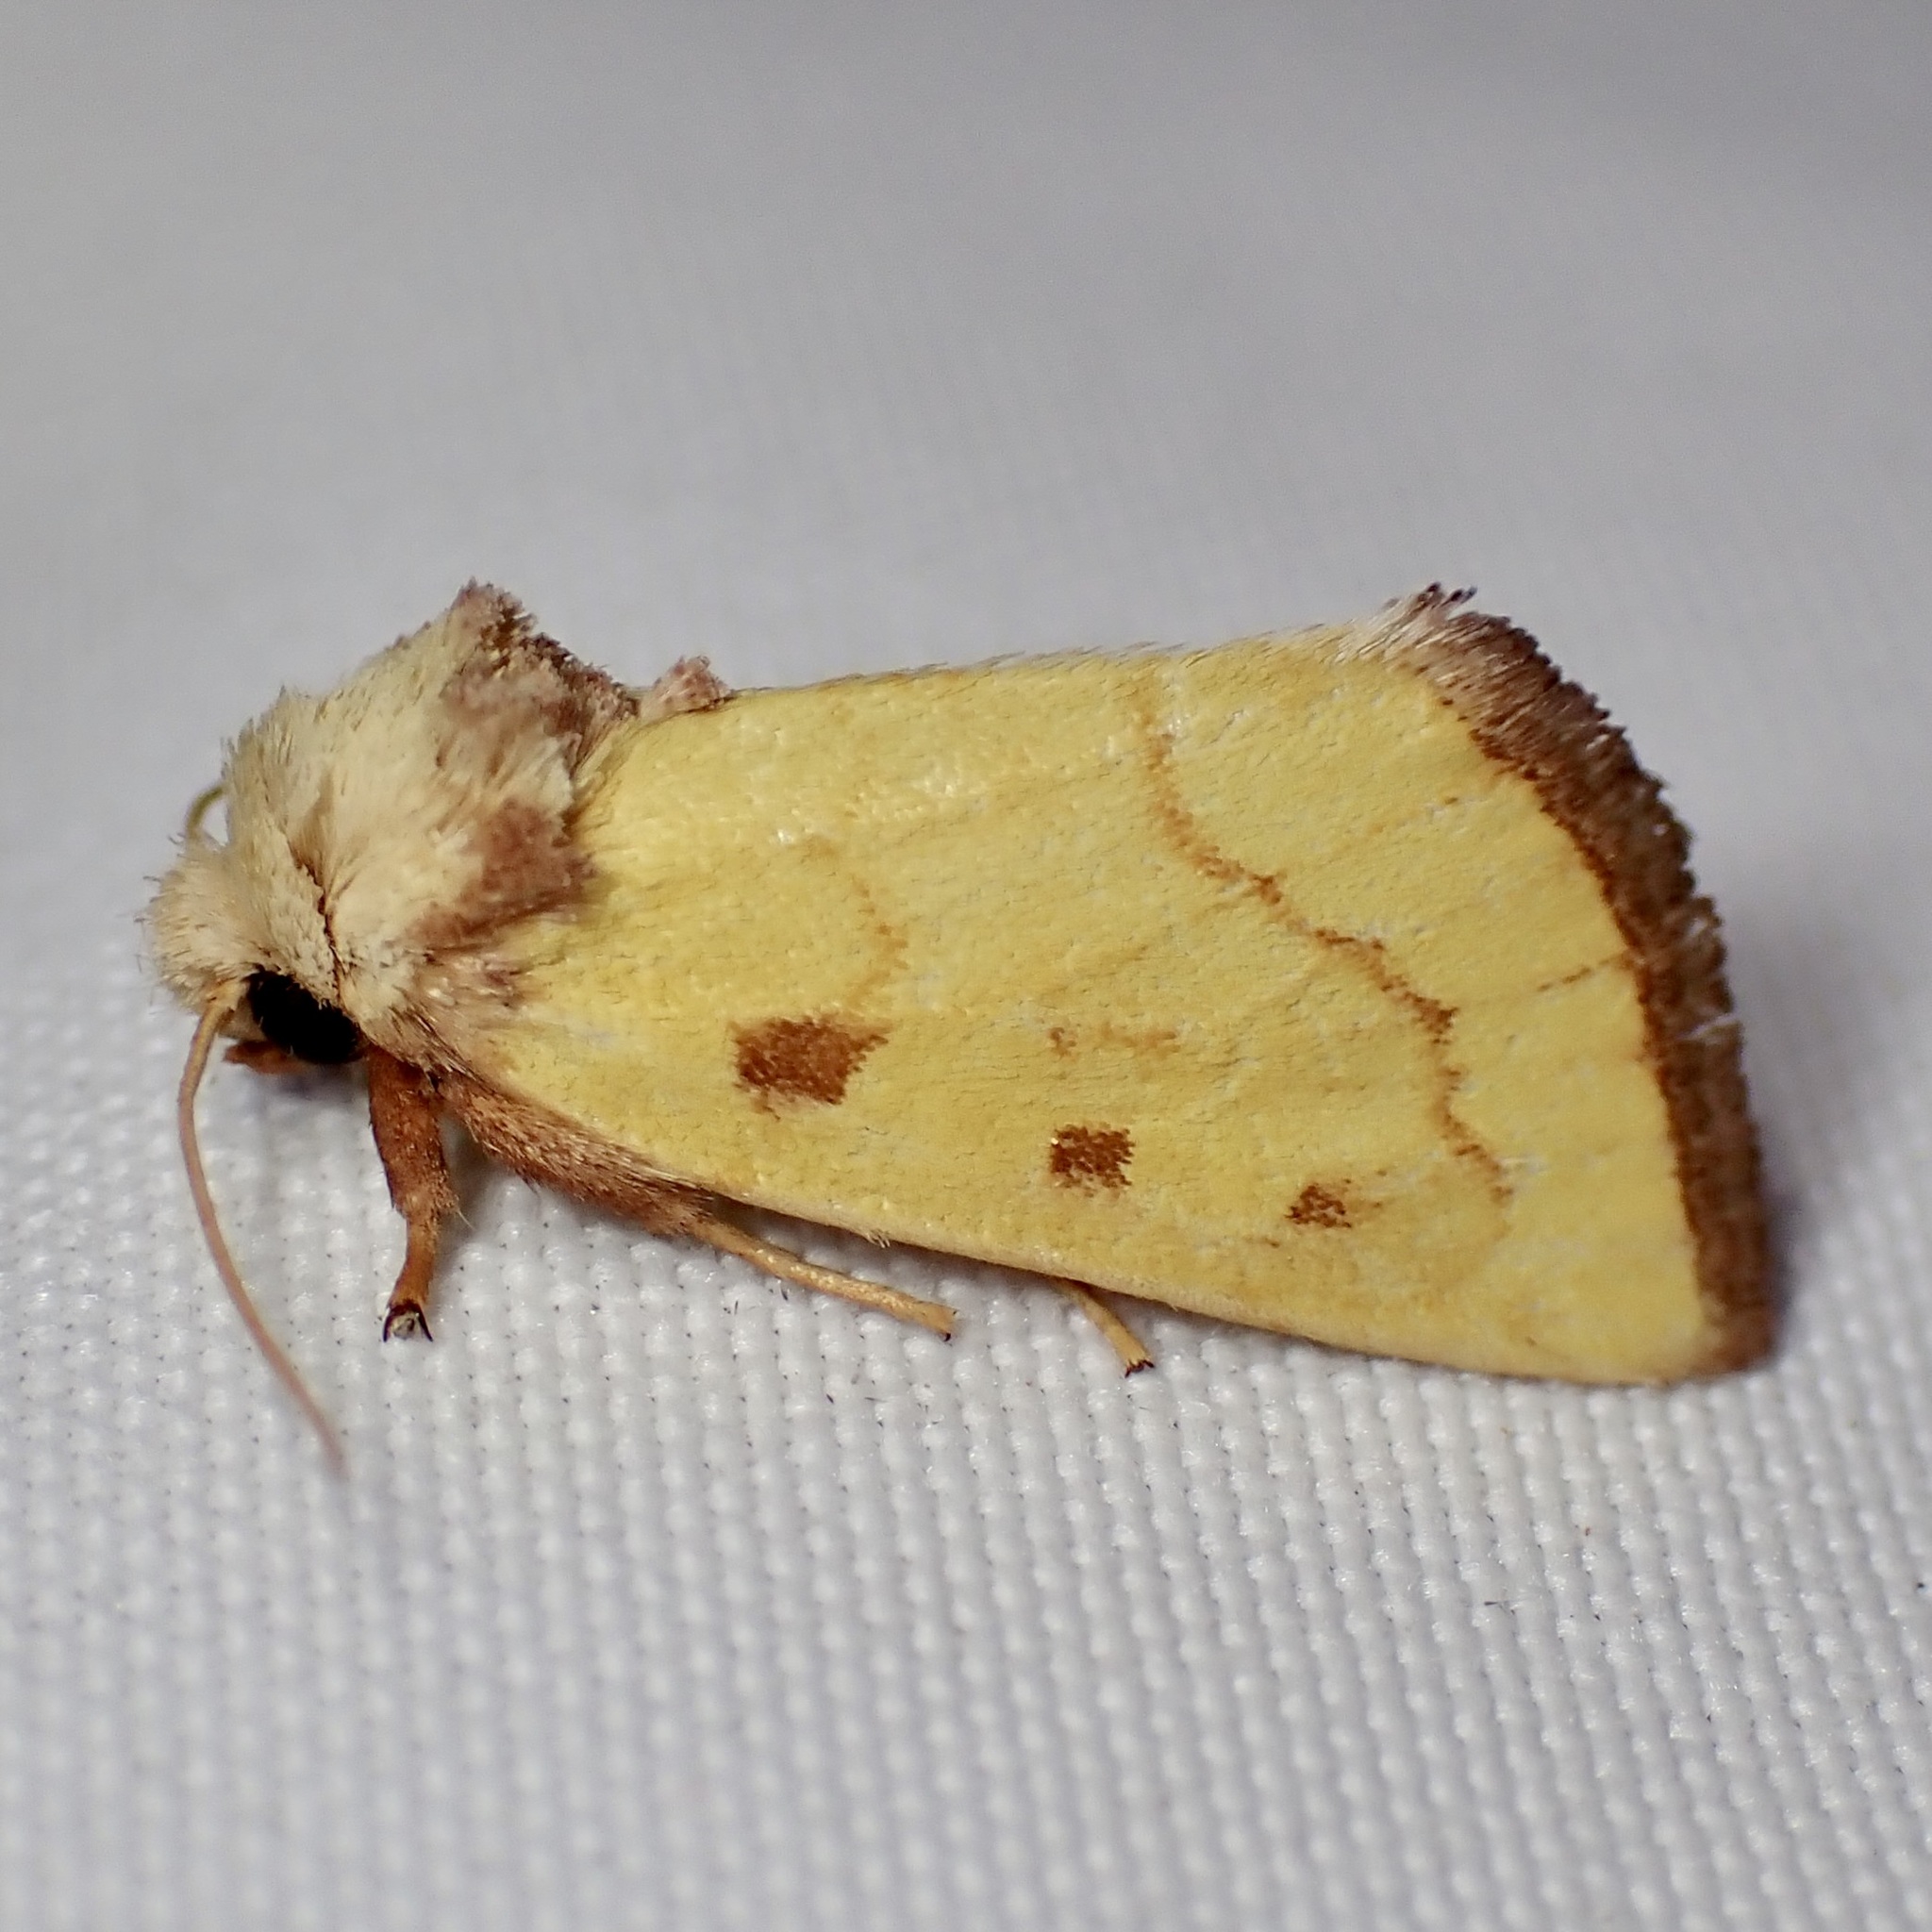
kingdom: Animalia
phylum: Arthropoda
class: Insecta
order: Lepidoptera
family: Noctuidae
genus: Nocloa
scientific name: Nocloa aliaga
